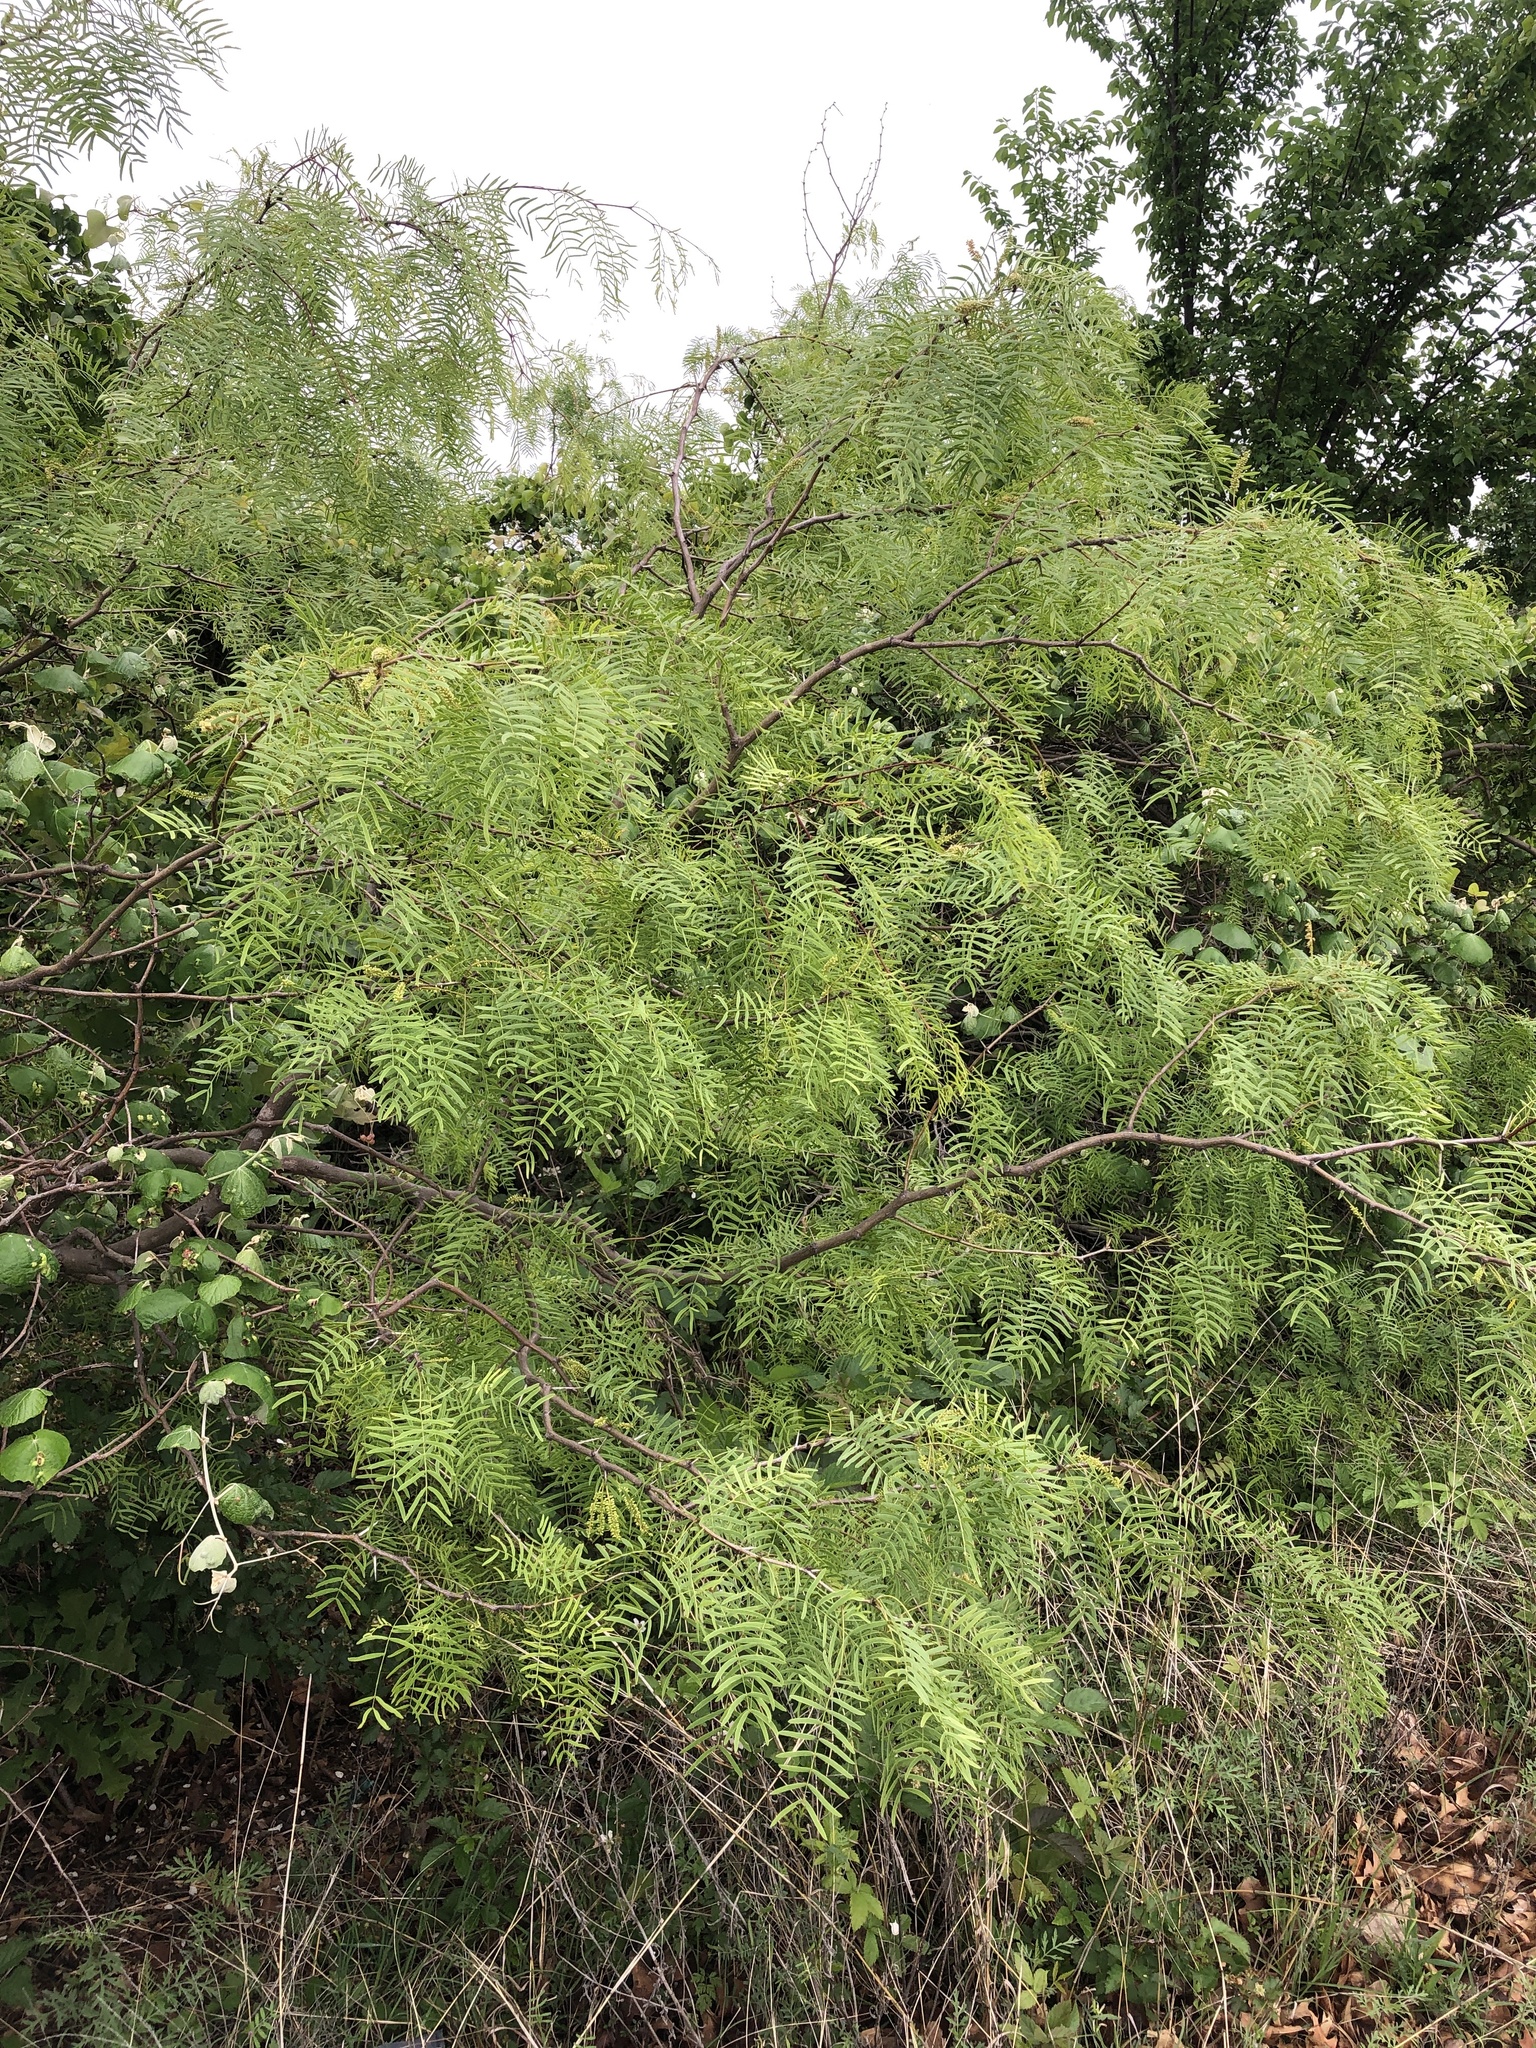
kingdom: Plantae
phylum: Tracheophyta
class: Magnoliopsida
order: Fabales
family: Fabaceae
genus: Prosopis
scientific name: Prosopis glandulosa
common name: Honey mesquite
